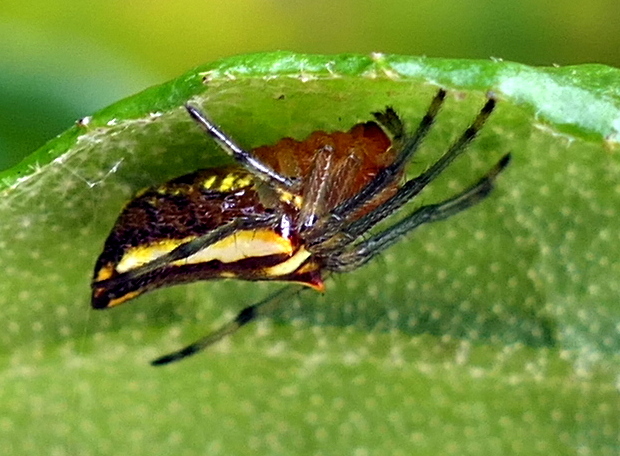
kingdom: Animalia
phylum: Arthropoda
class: Arachnida
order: Araneae
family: Araneidae
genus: Alpaida
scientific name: Alpaida bicornuta
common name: Orb weavers
